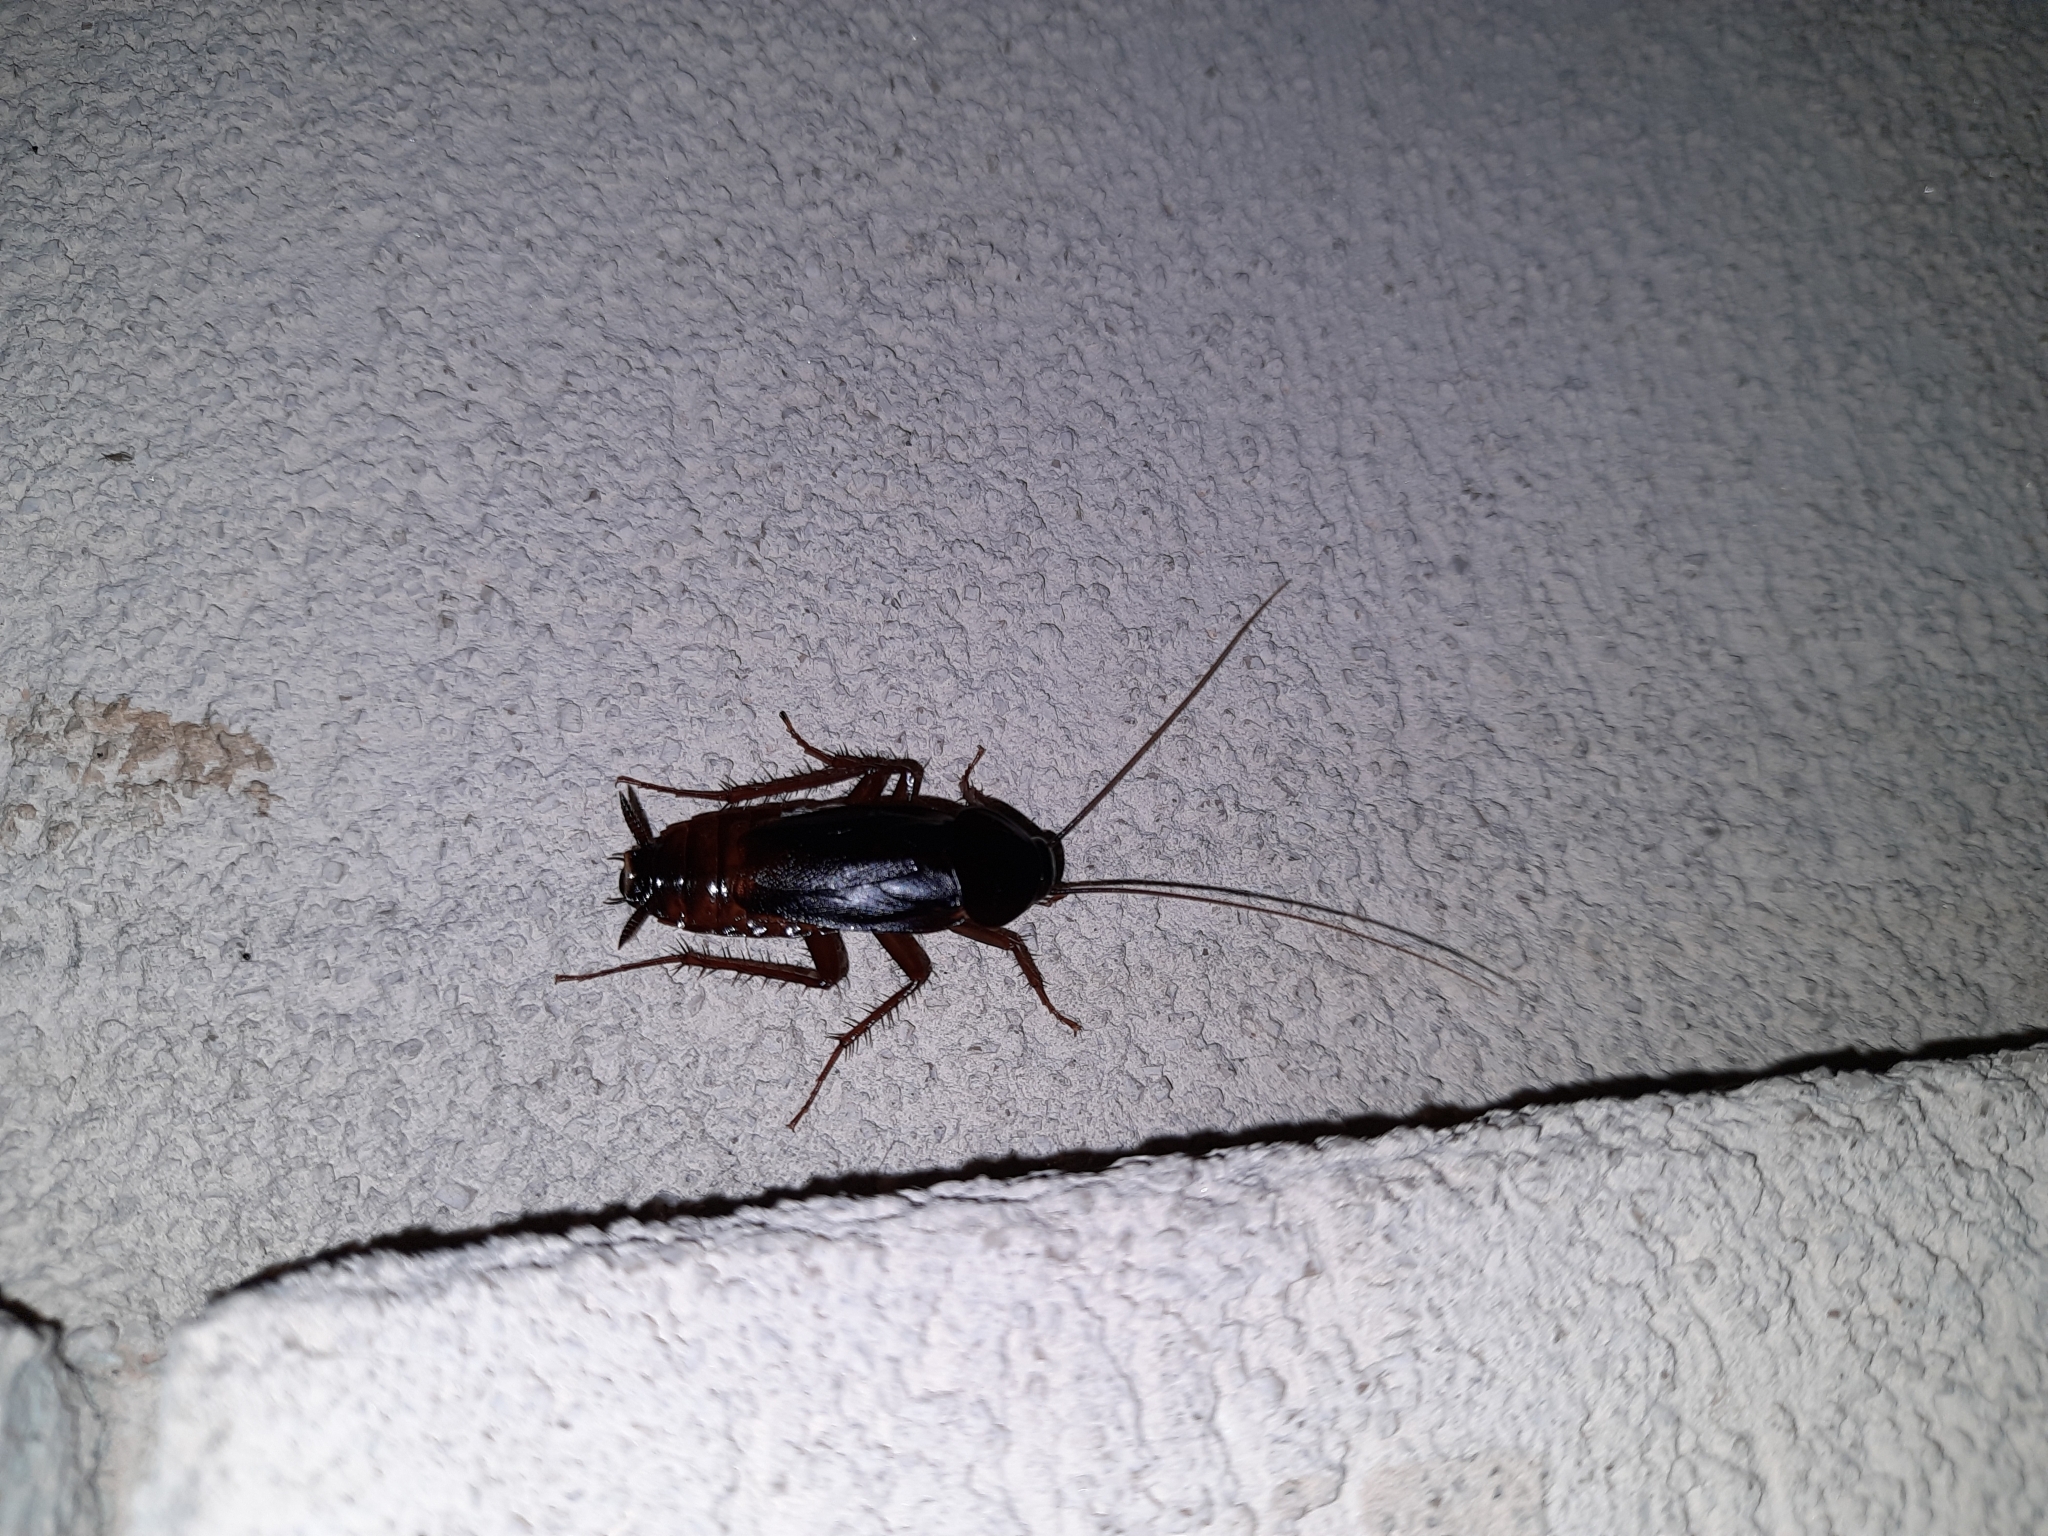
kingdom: Animalia
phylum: Arthropoda
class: Insecta
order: Blattodea
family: Blattidae
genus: Blatta
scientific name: Blatta orientalis
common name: Oriental cockroach
